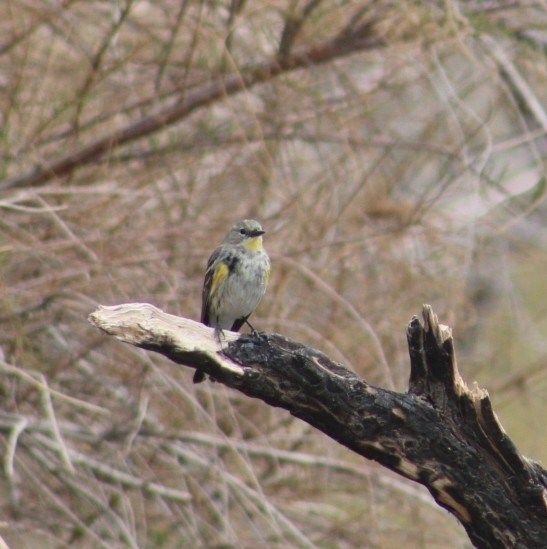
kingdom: Animalia
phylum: Chordata
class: Aves
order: Passeriformes
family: Parulidae
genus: Setophaga
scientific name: Setophaga coronata
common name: Myrtle warbler
